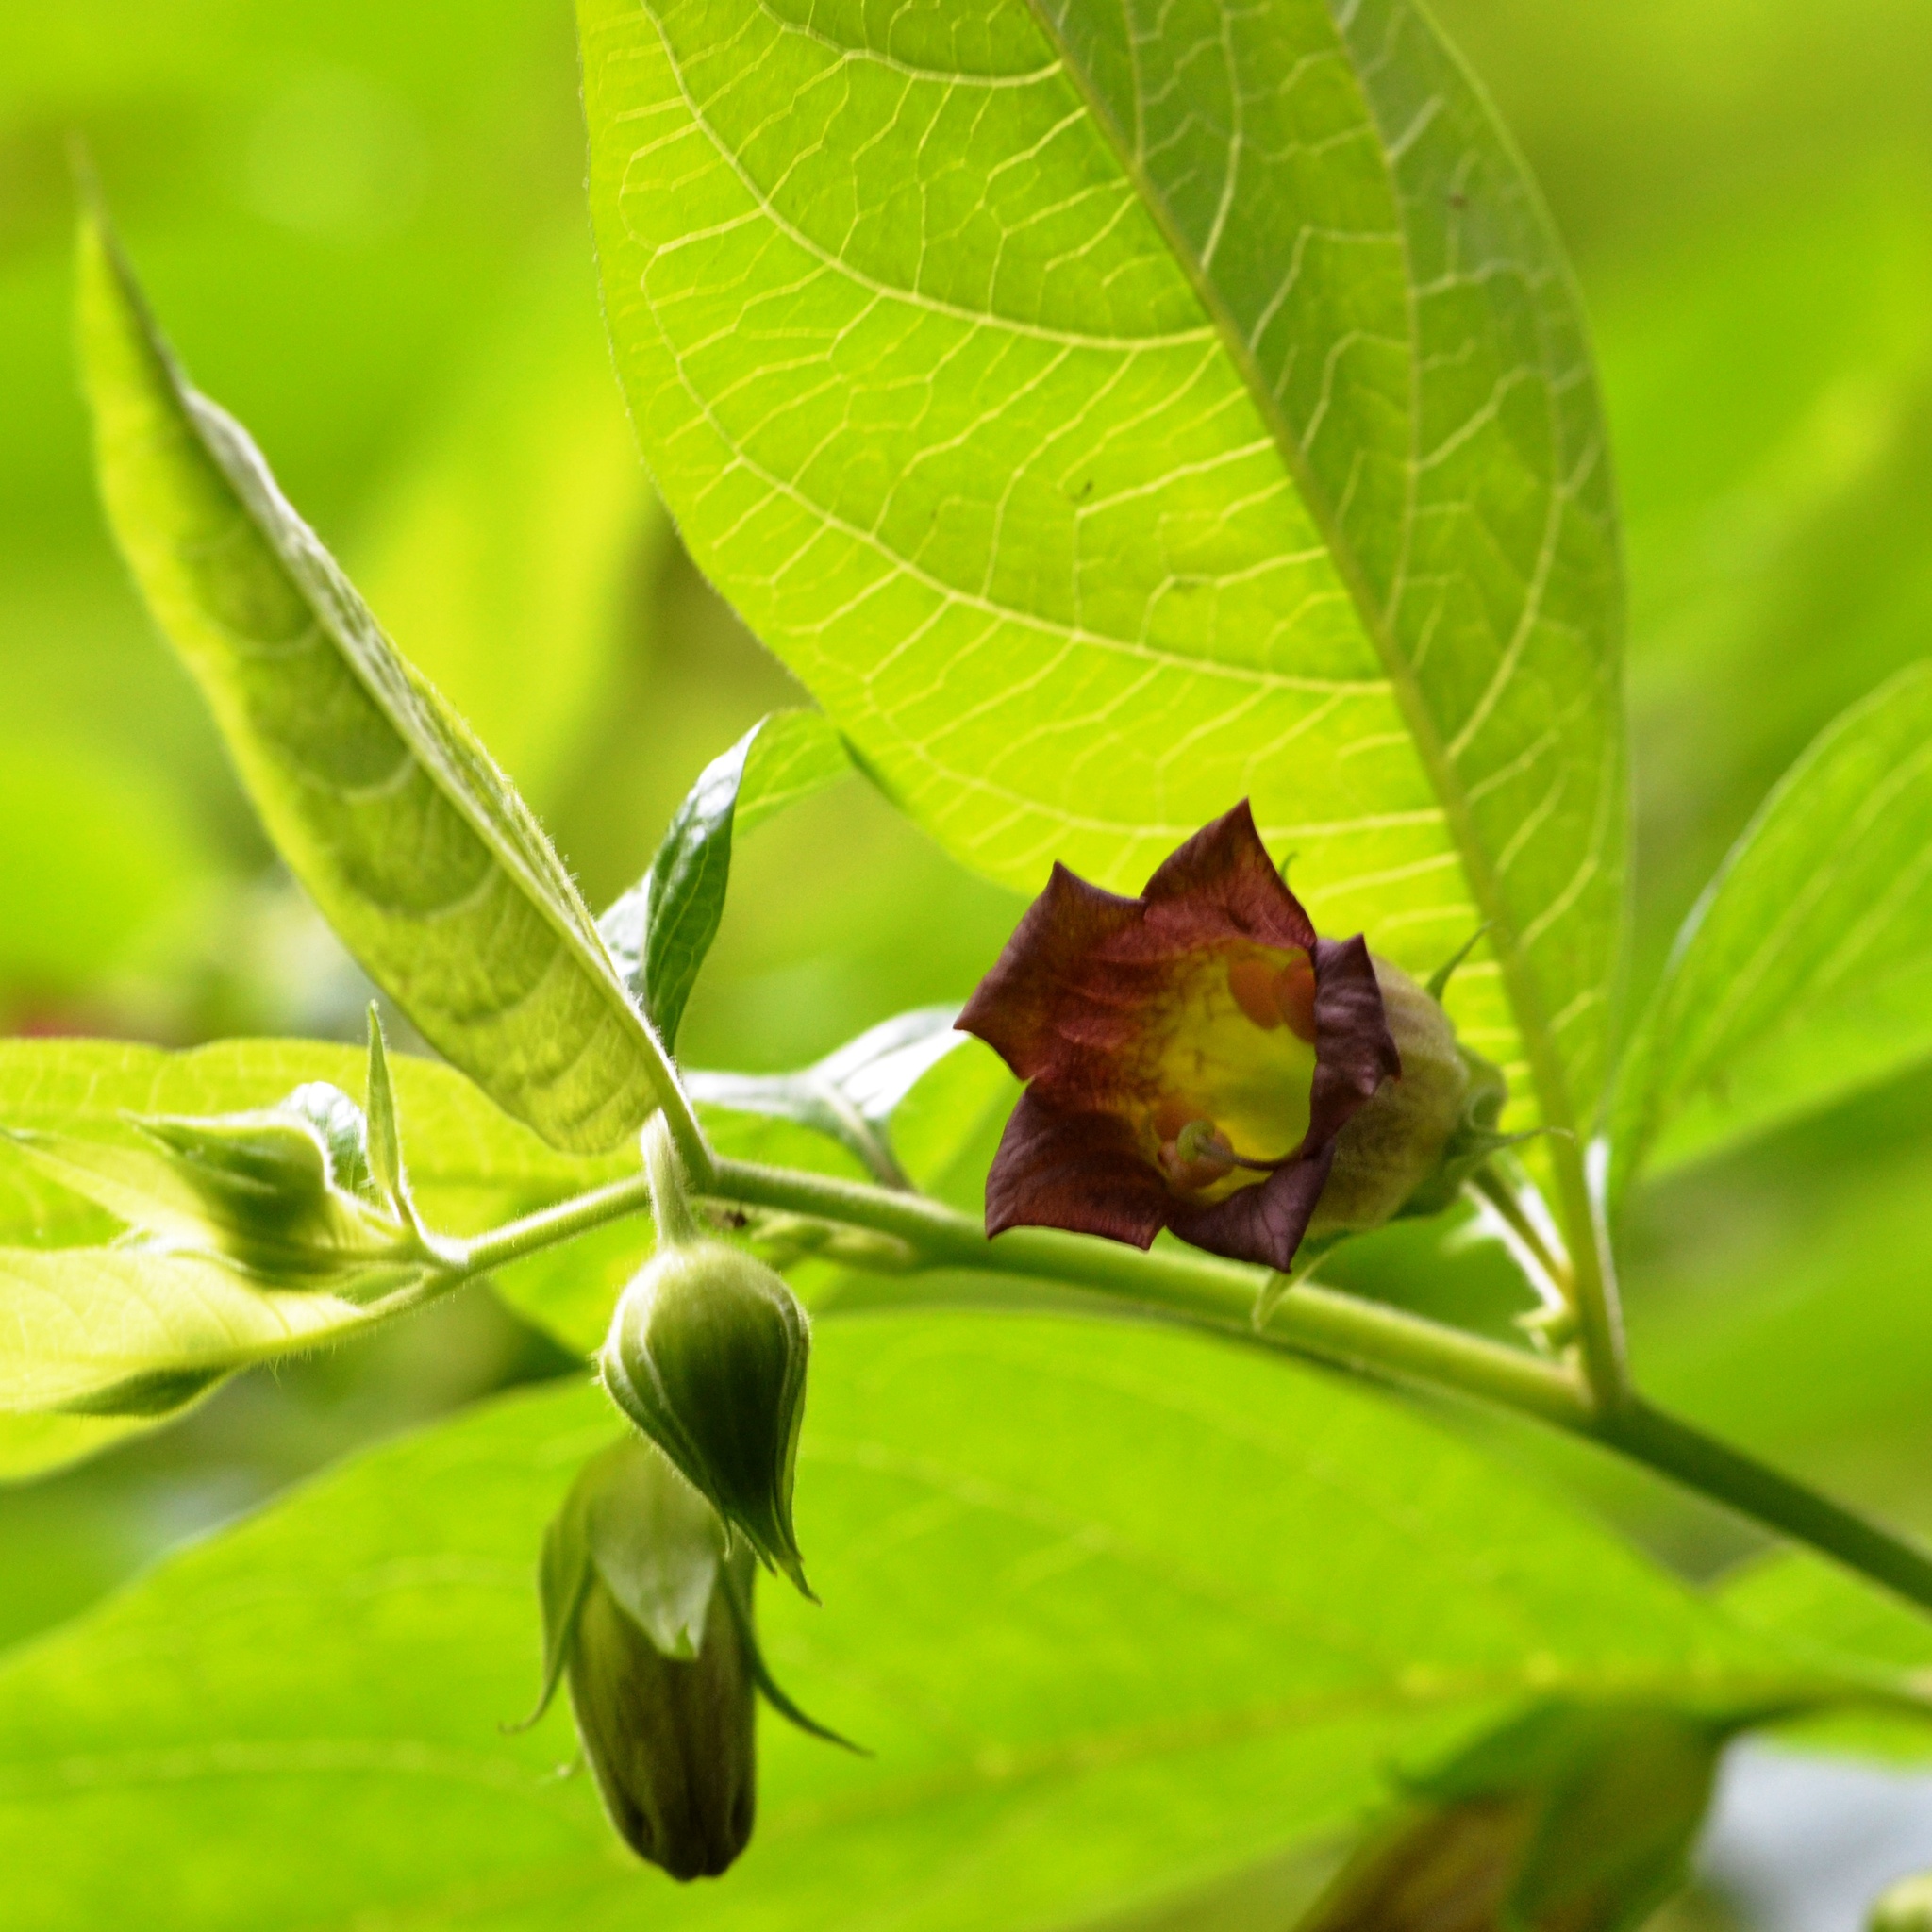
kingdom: Plantae
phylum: Tracheophyta
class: Magnoliopsida
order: Solanales
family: Solanaceae
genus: Atropa
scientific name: Atropa belladonna
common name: Deadly nightshade
